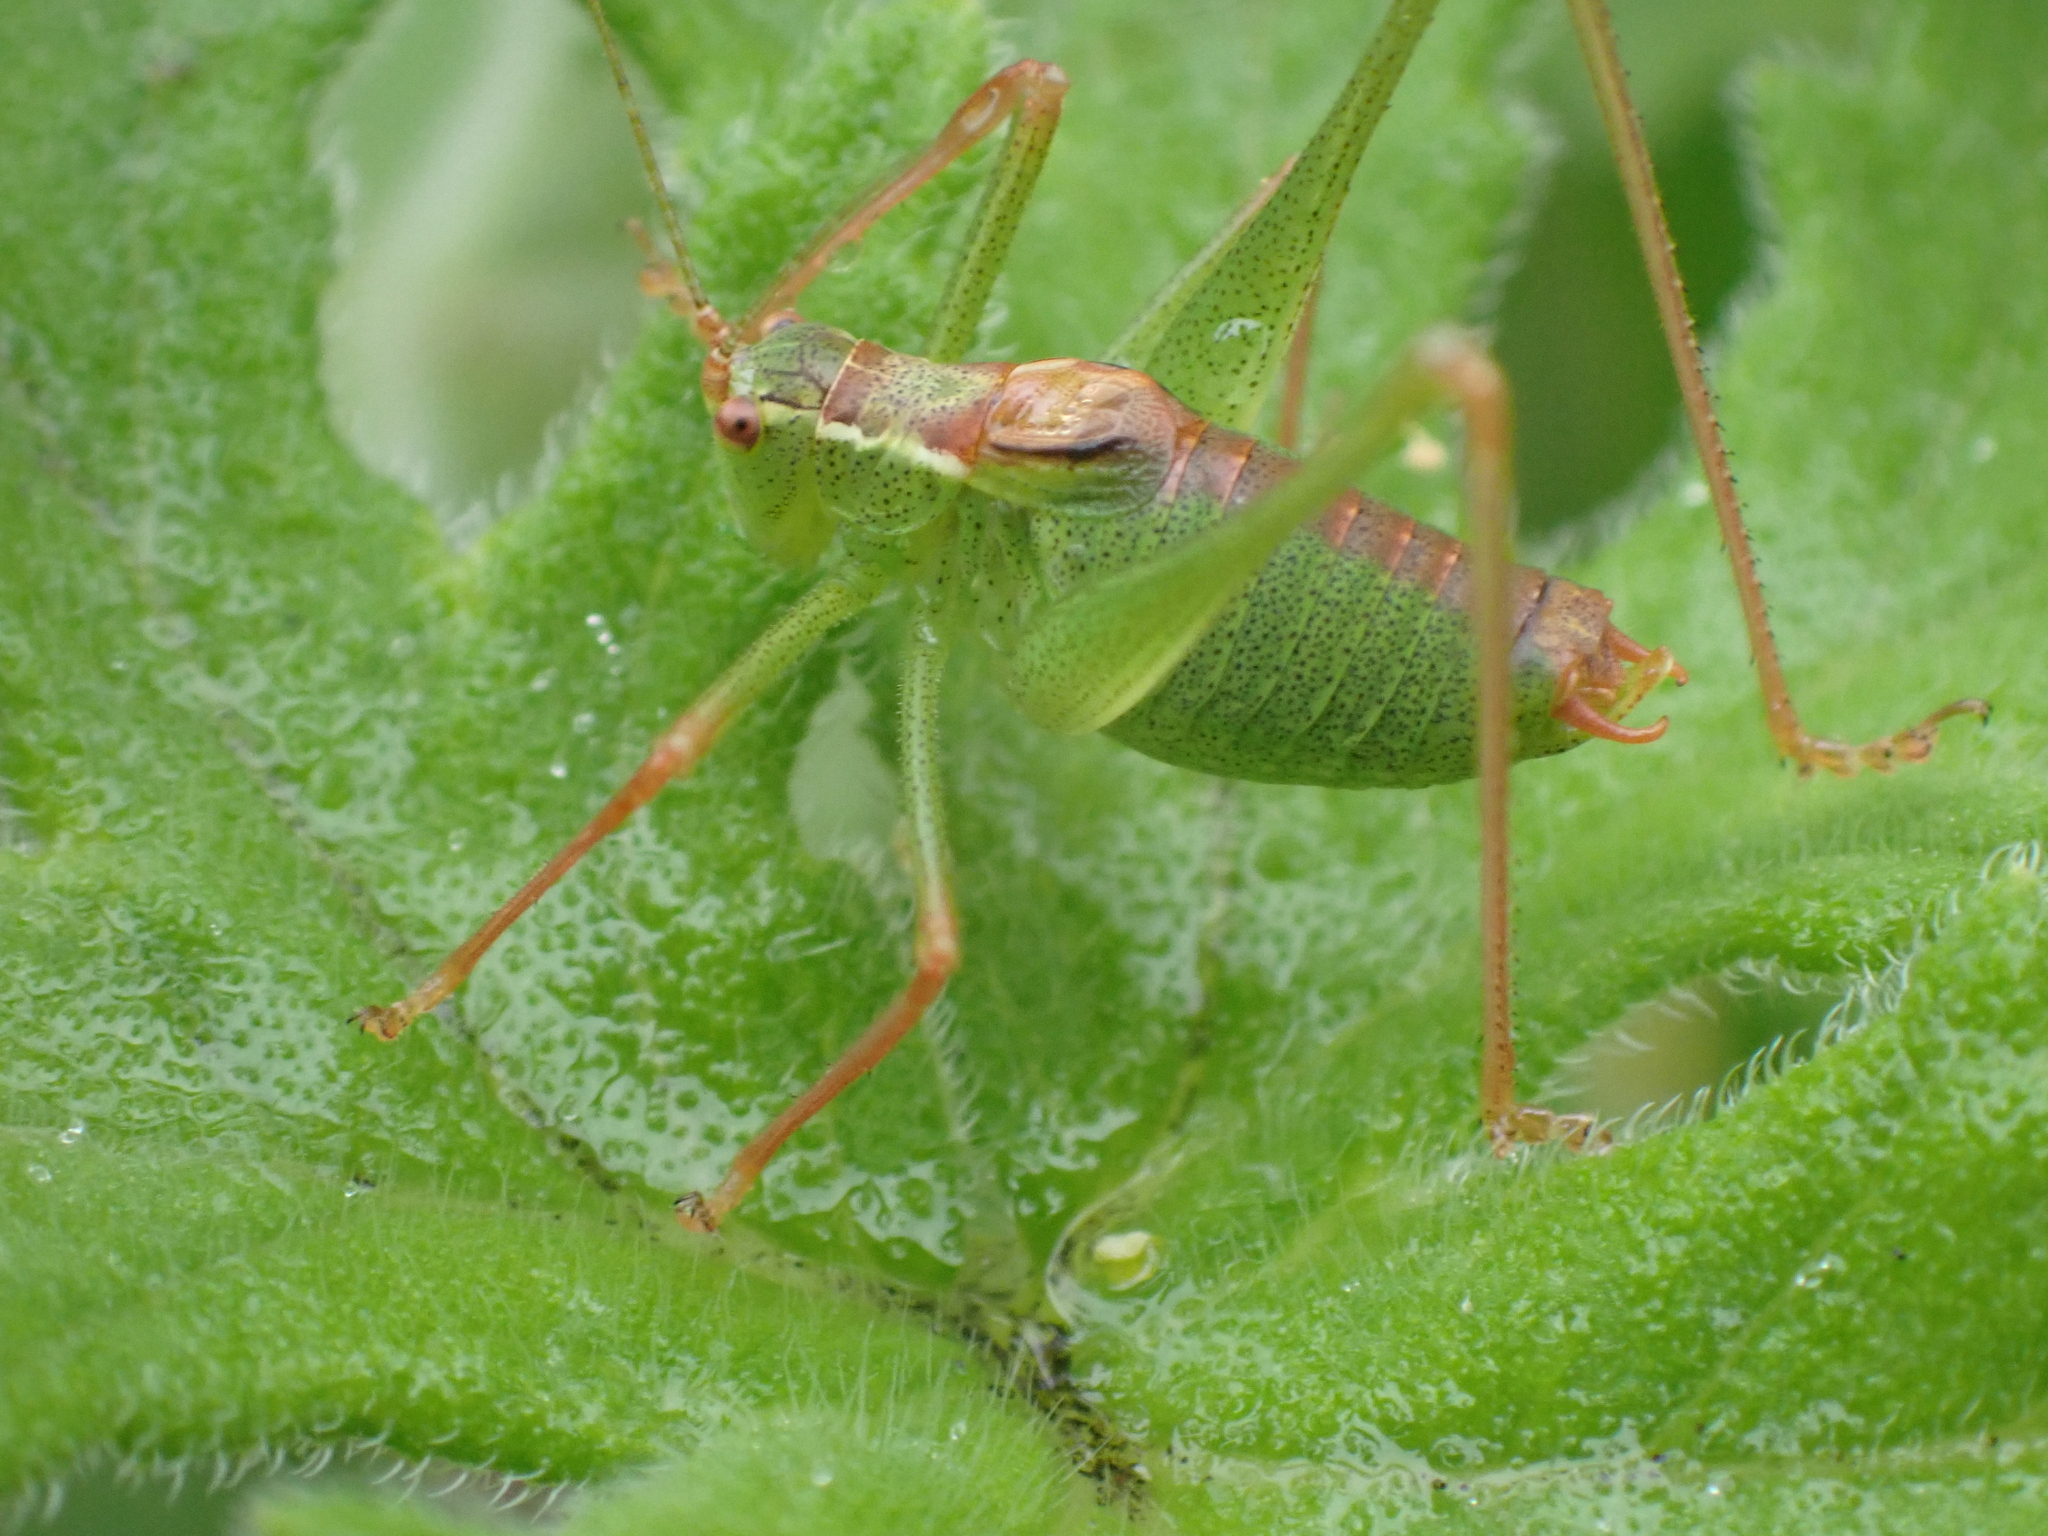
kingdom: Animalia
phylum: Arthropoda
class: Insecta
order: Orthoptera
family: Tettigoniidae
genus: Leptophyes
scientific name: Leptophyes punctatissima
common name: Speckled bush-cricket
